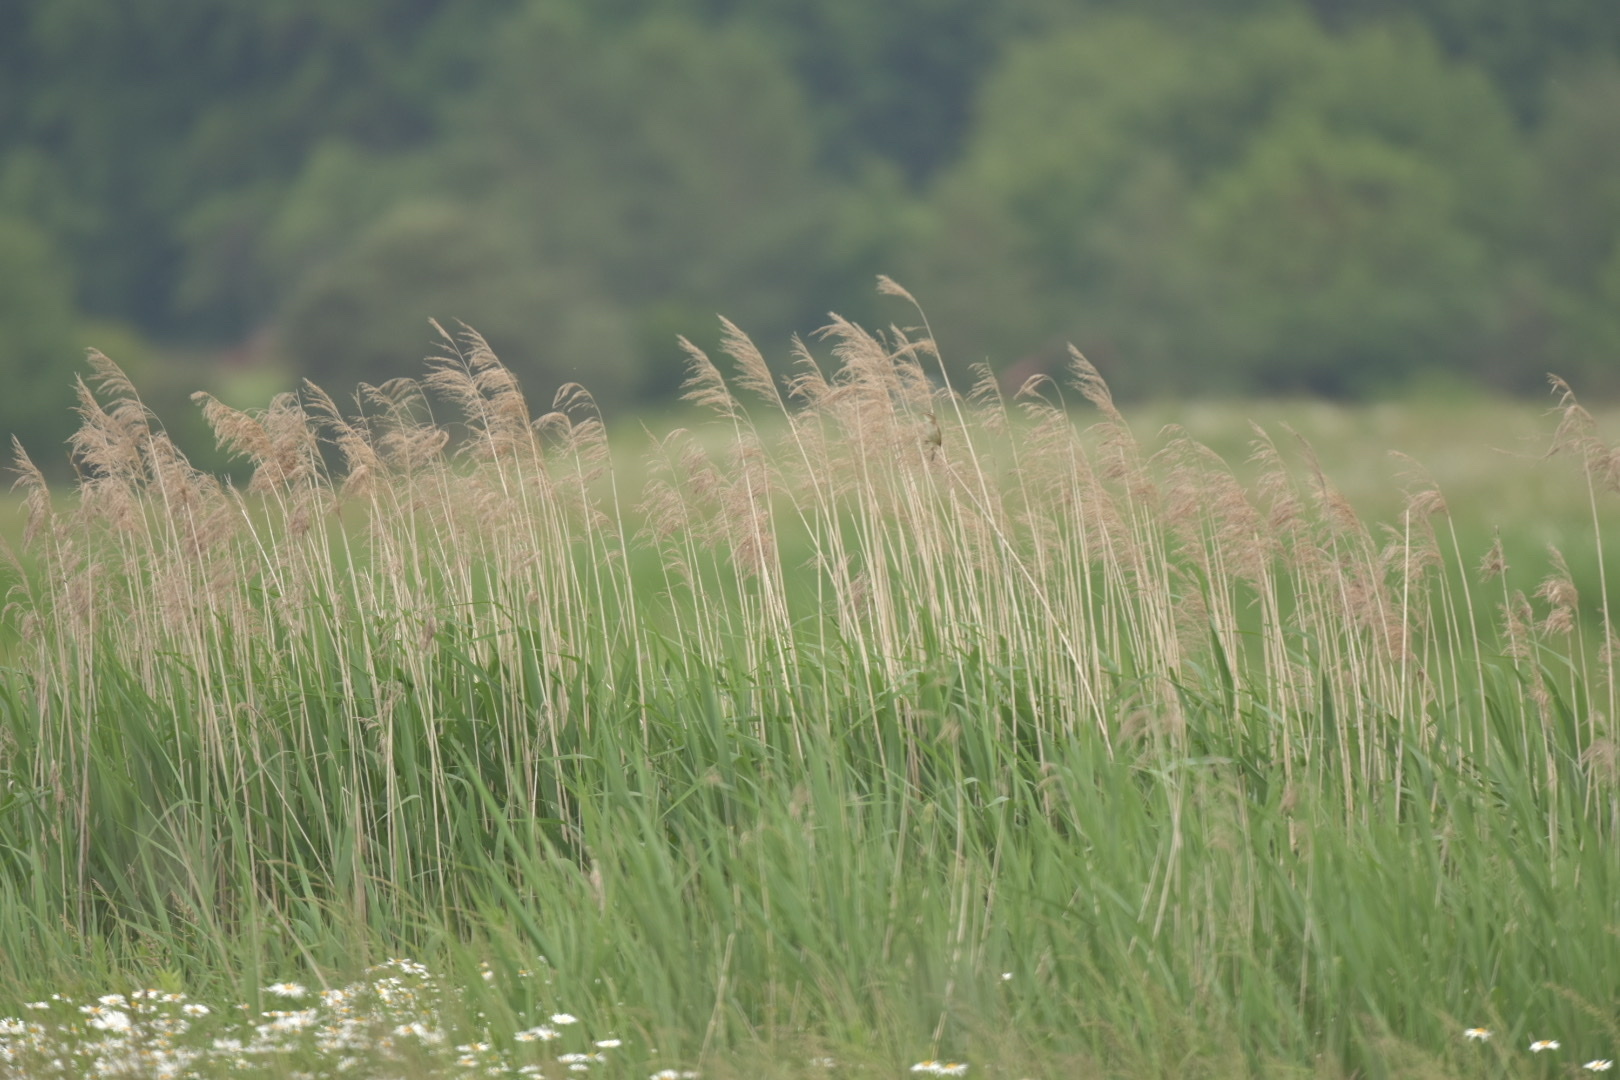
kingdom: Animalia
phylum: Chordata
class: Aves
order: Passeriformes
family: Acrocephalidae
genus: Acrocephalus
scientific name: Acrocephalus schoenobaenus
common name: Sedge warbler
